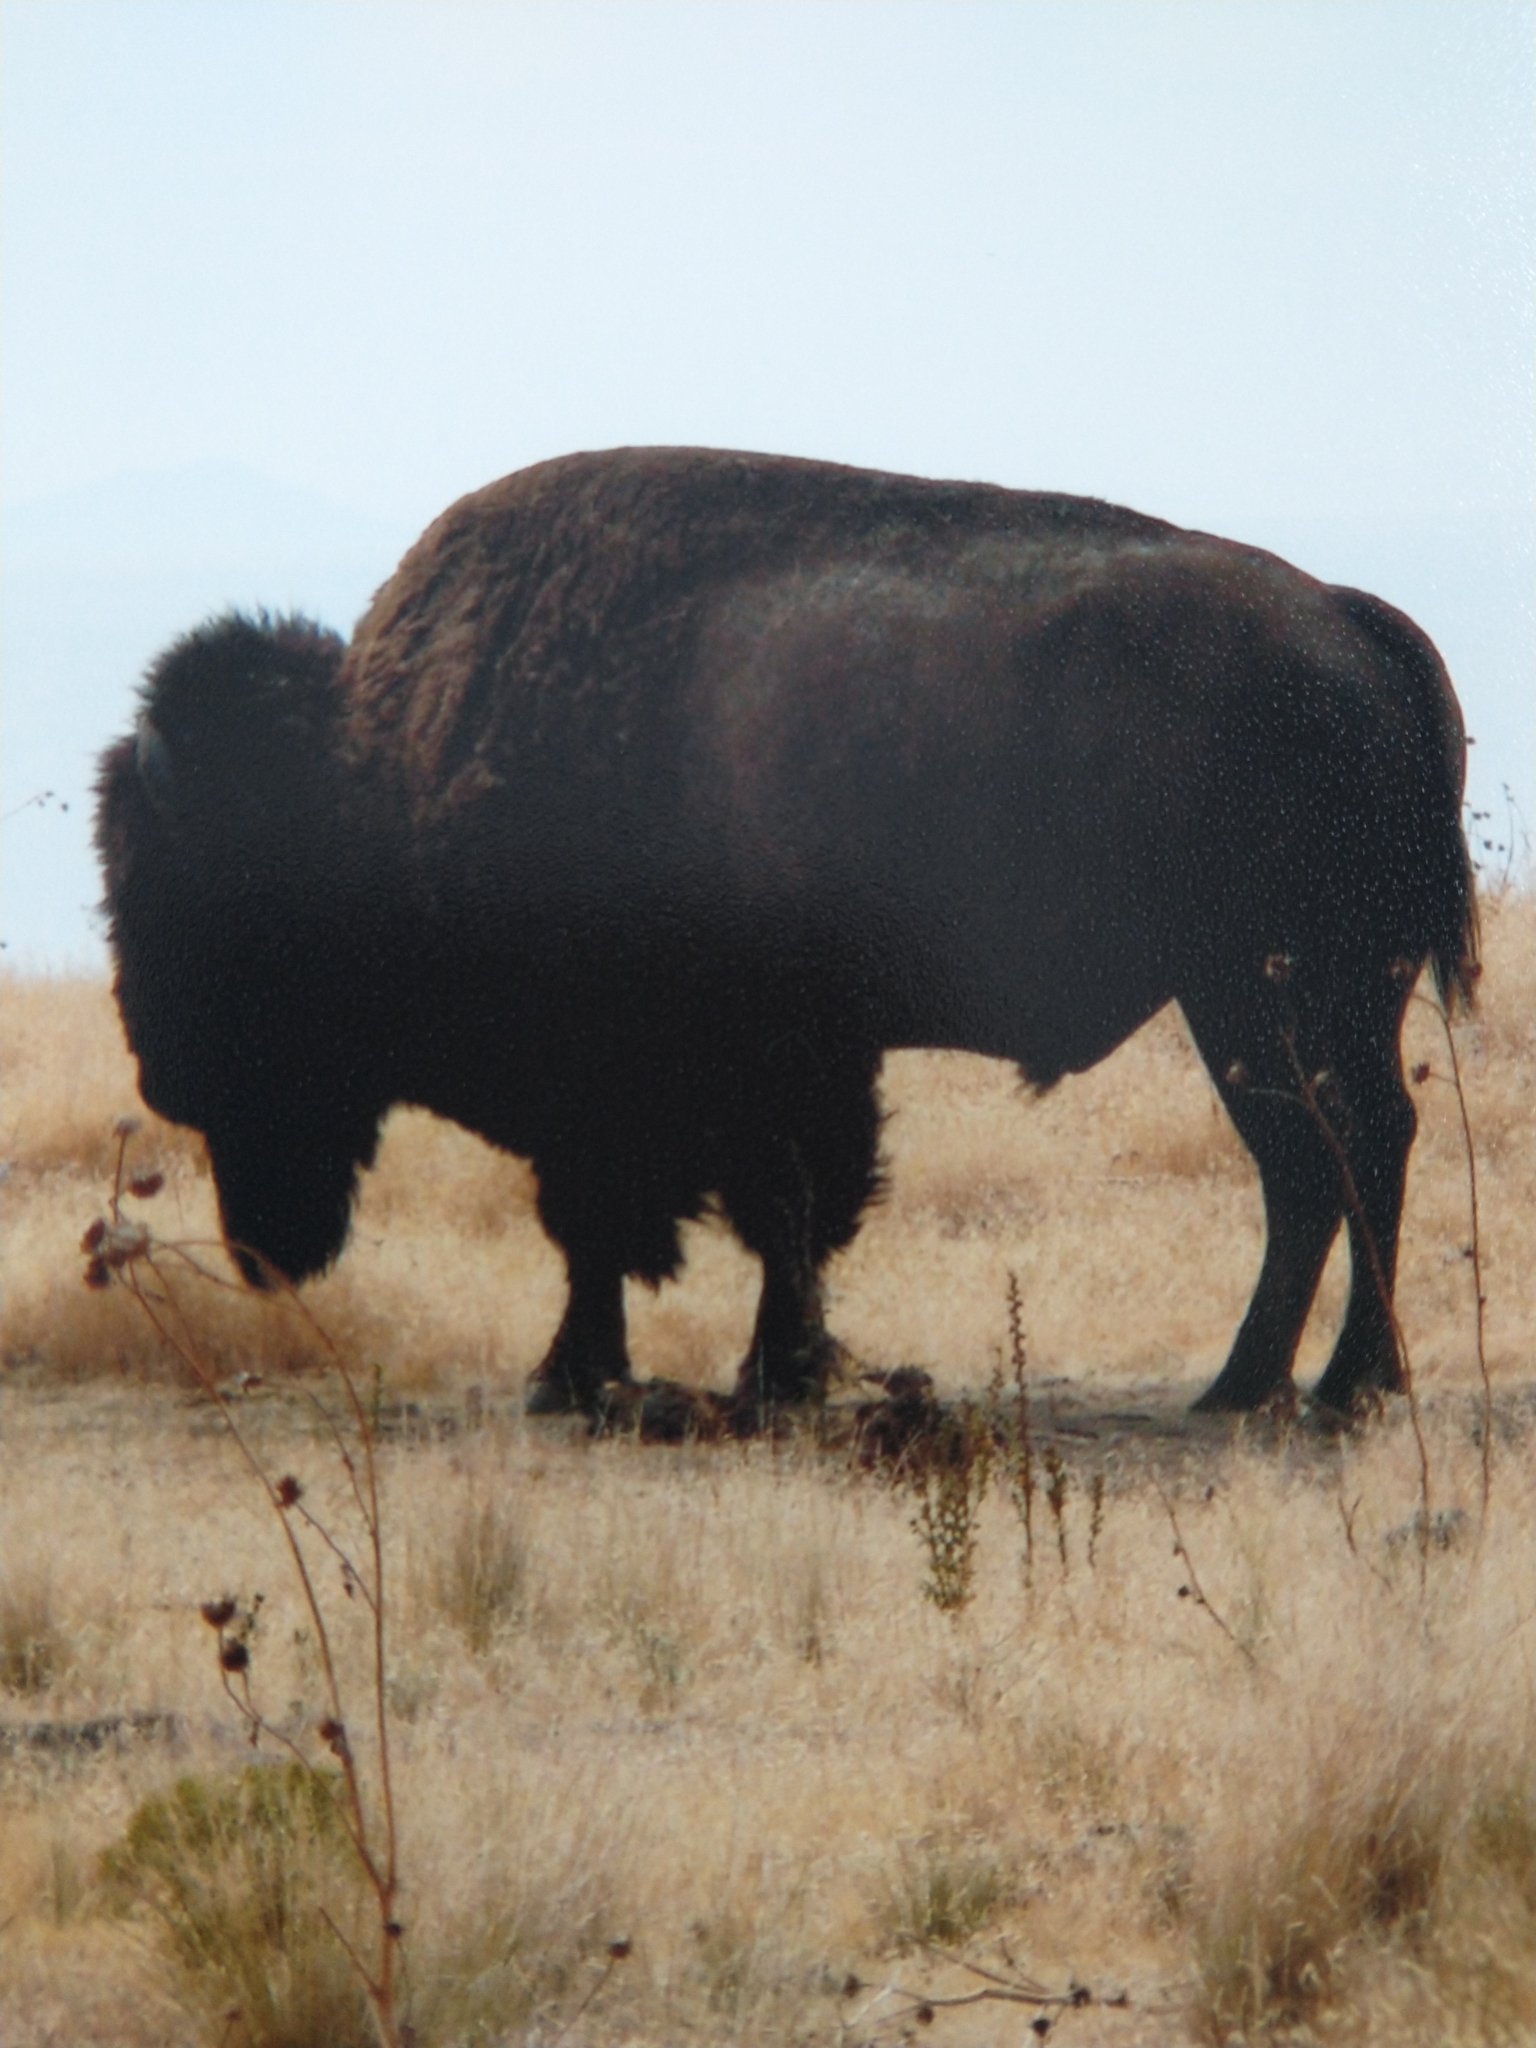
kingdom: Animalia
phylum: Chordata
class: Mammalia
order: Artiodactyla
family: Bovidae
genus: Bison
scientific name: Bison bison
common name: American bison
